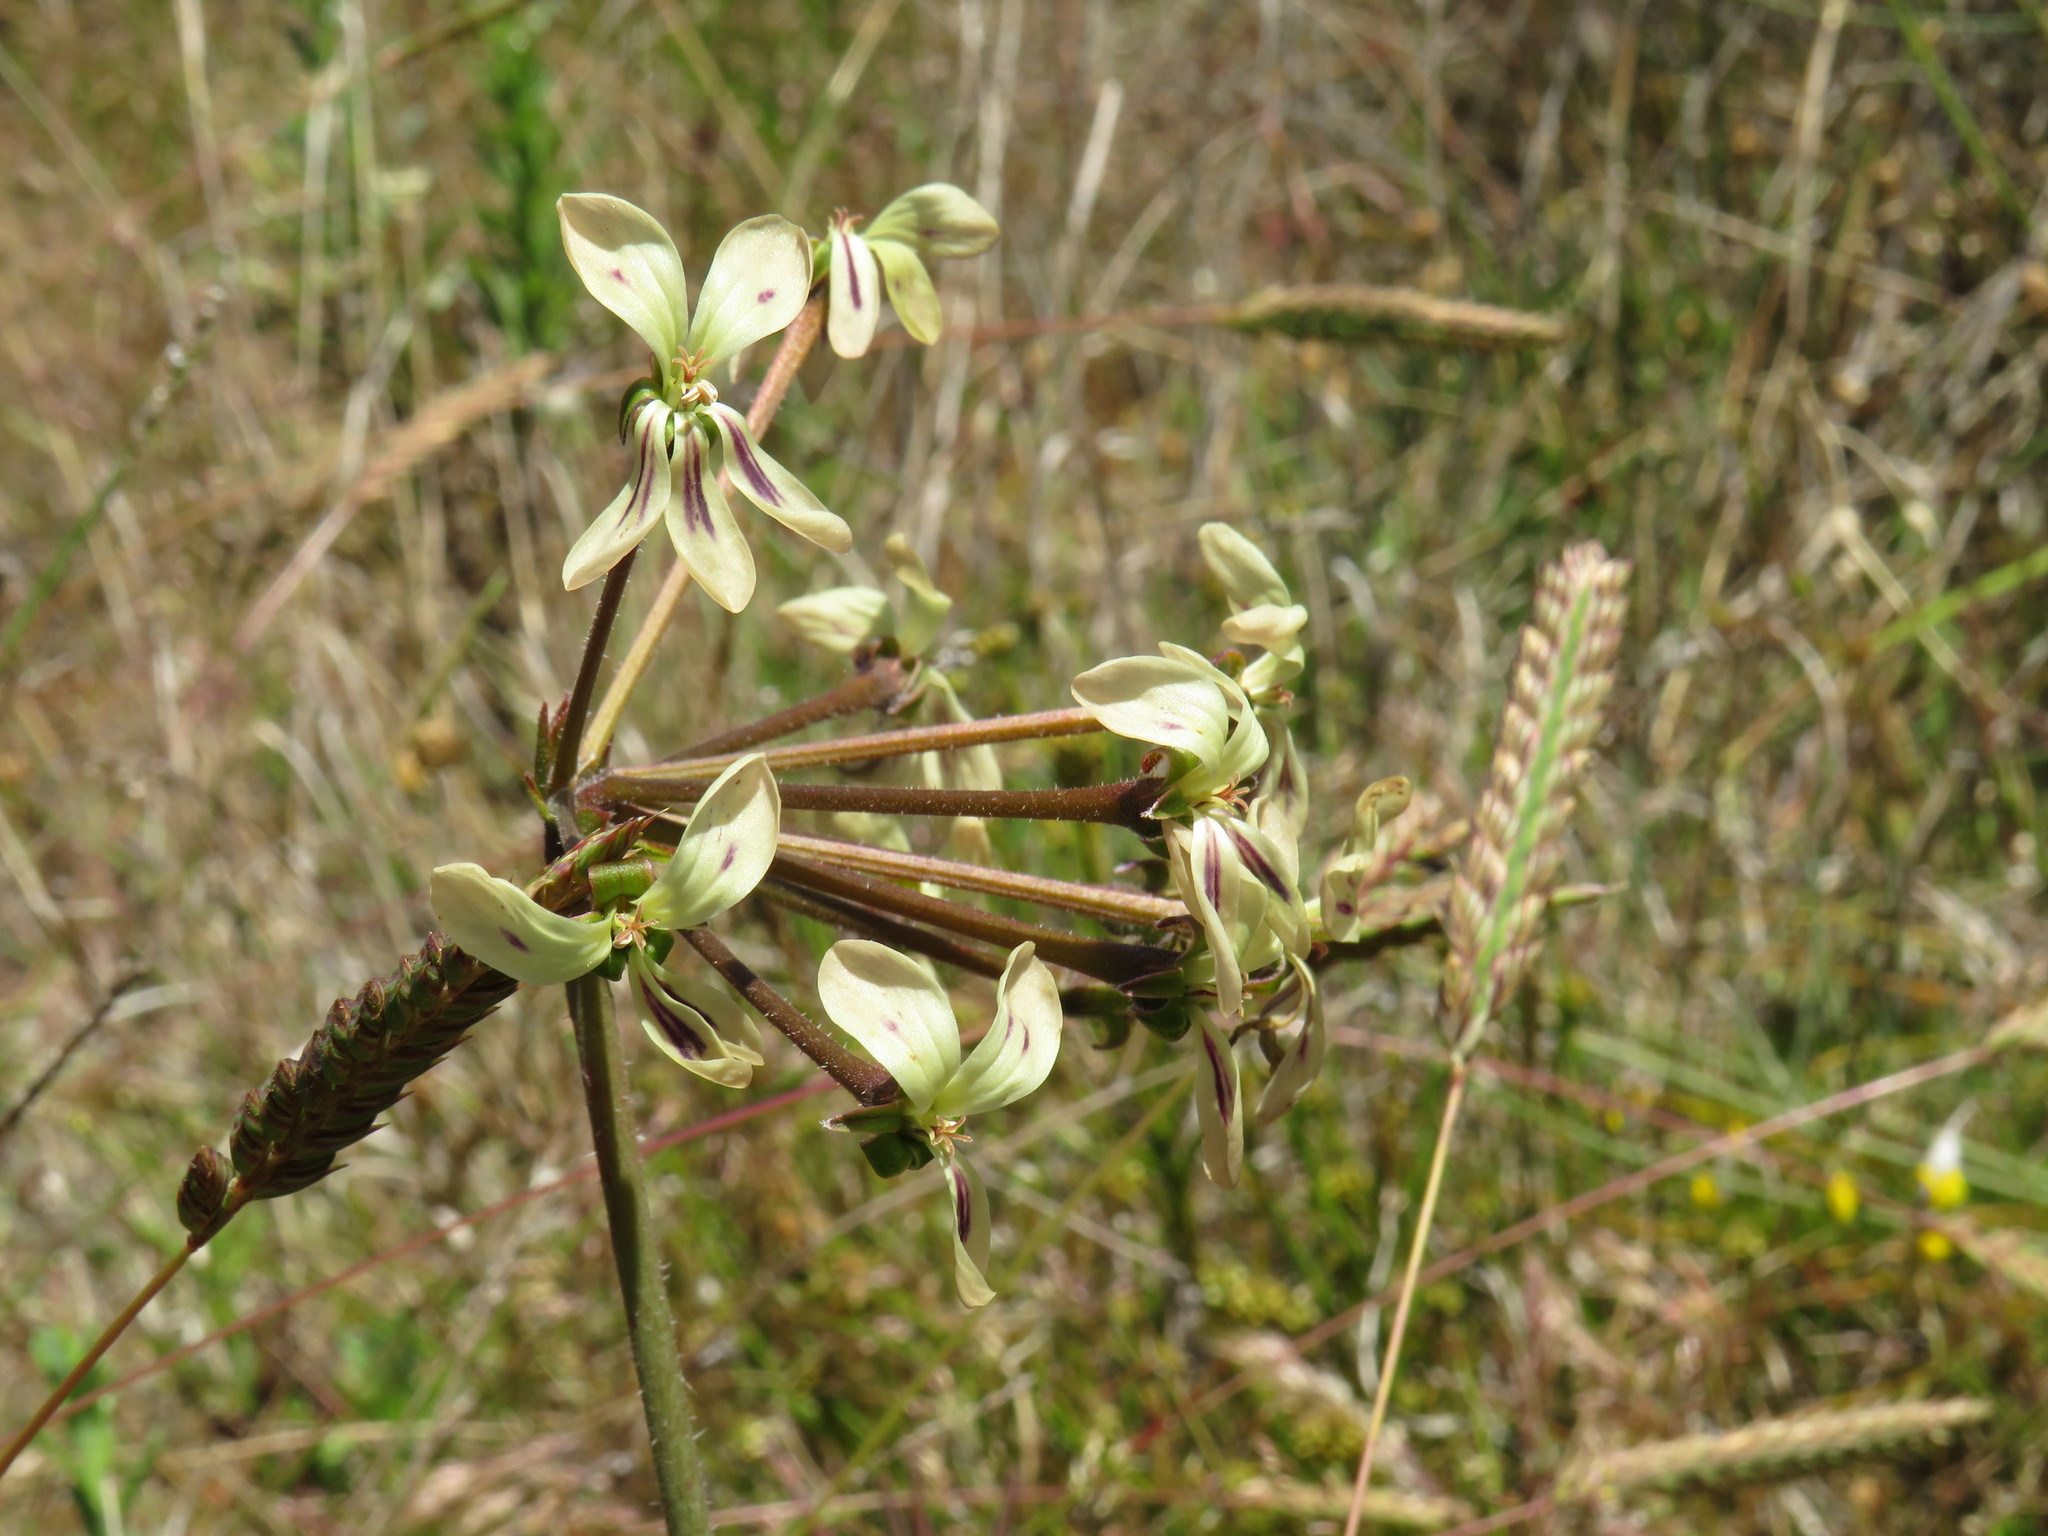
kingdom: Plantae
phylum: Tracheophyta
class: Magnoliopsida
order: Geraniales
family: Geraniaceae
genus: Pelargonium
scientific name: Pelargonium triste
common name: Night-scent pelargonium
